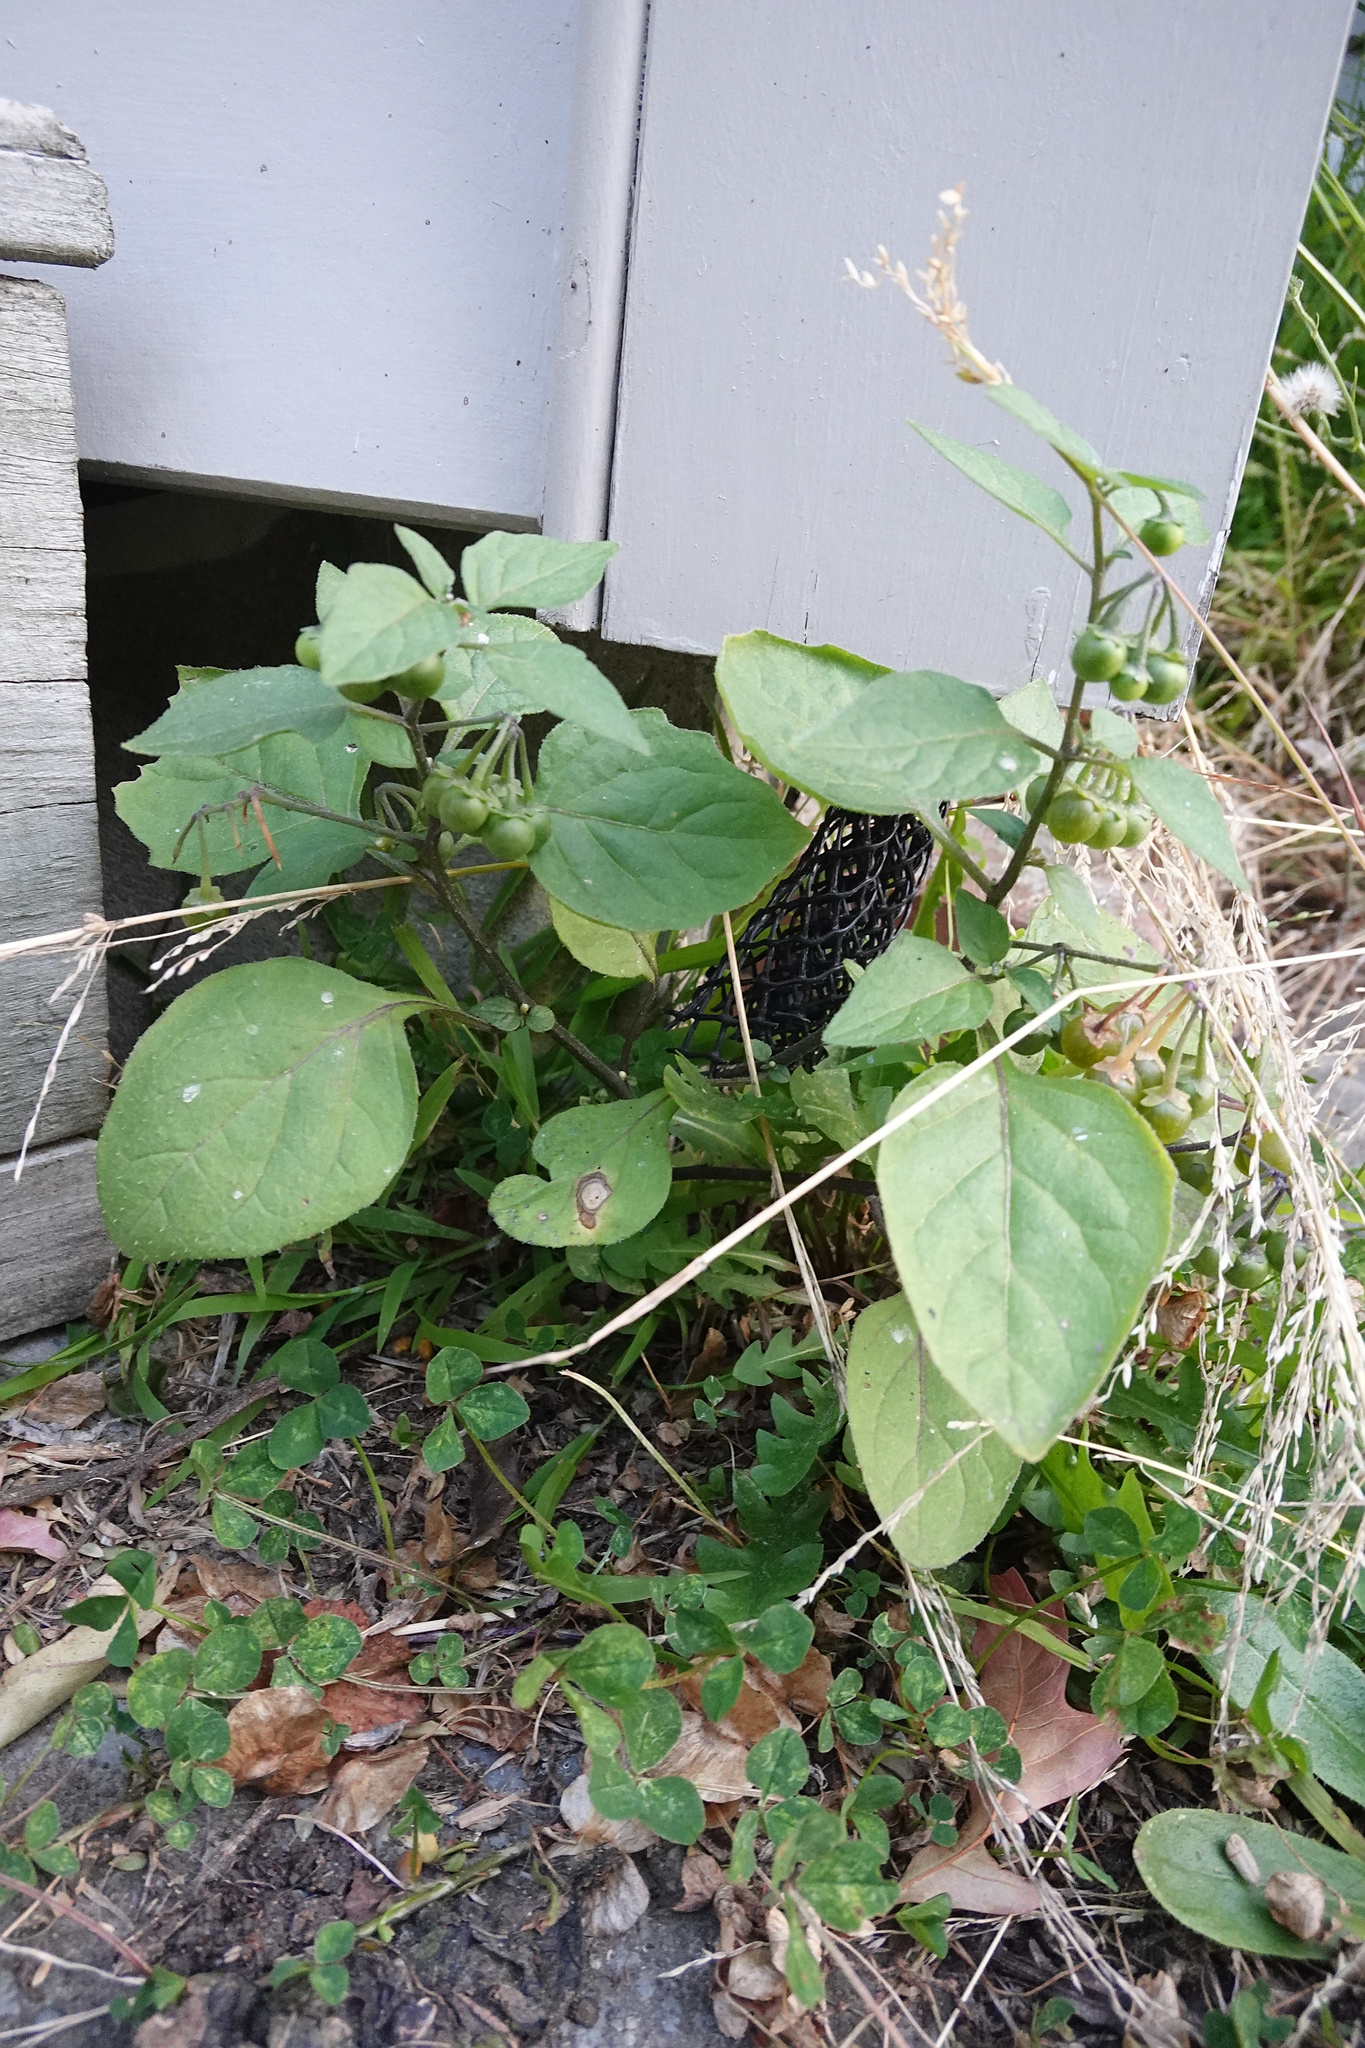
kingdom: Plantae
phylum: Tracheophyta
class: Magnoliopsida
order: Solanales
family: Solanaceae
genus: Solanum
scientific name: Solanum nigrum
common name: Black nightshade
